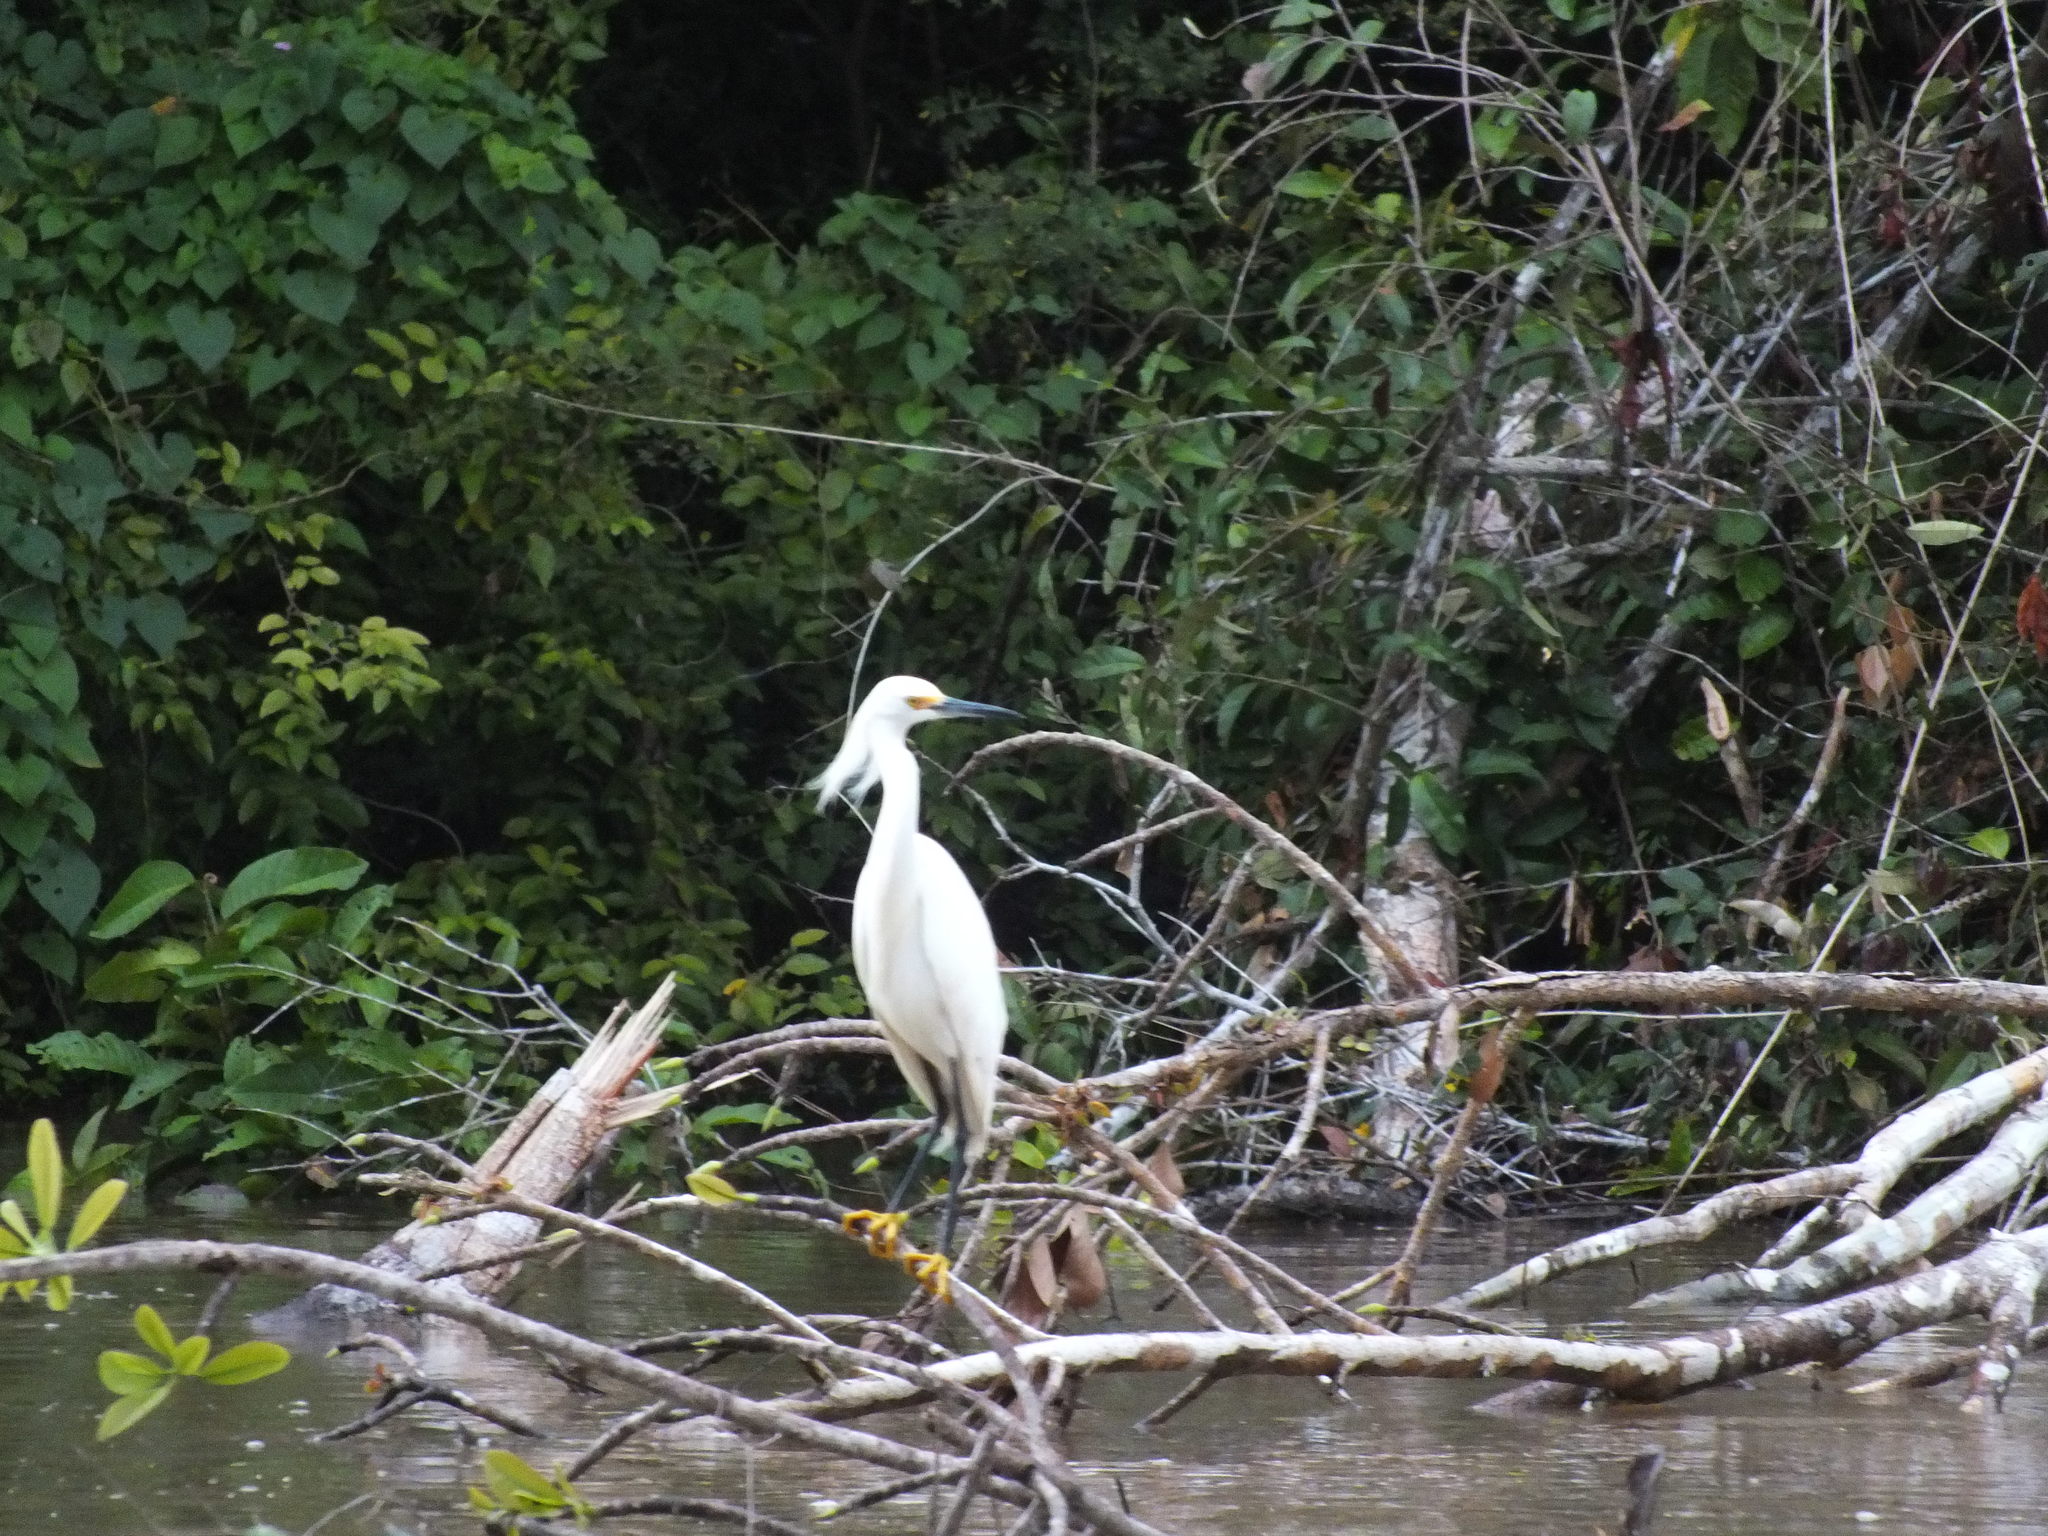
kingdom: Animalia
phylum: Chordata
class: Aves
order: Pelecaniformes
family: Ardeidae
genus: Egretta
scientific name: Egretta thula
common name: Snowy egret
